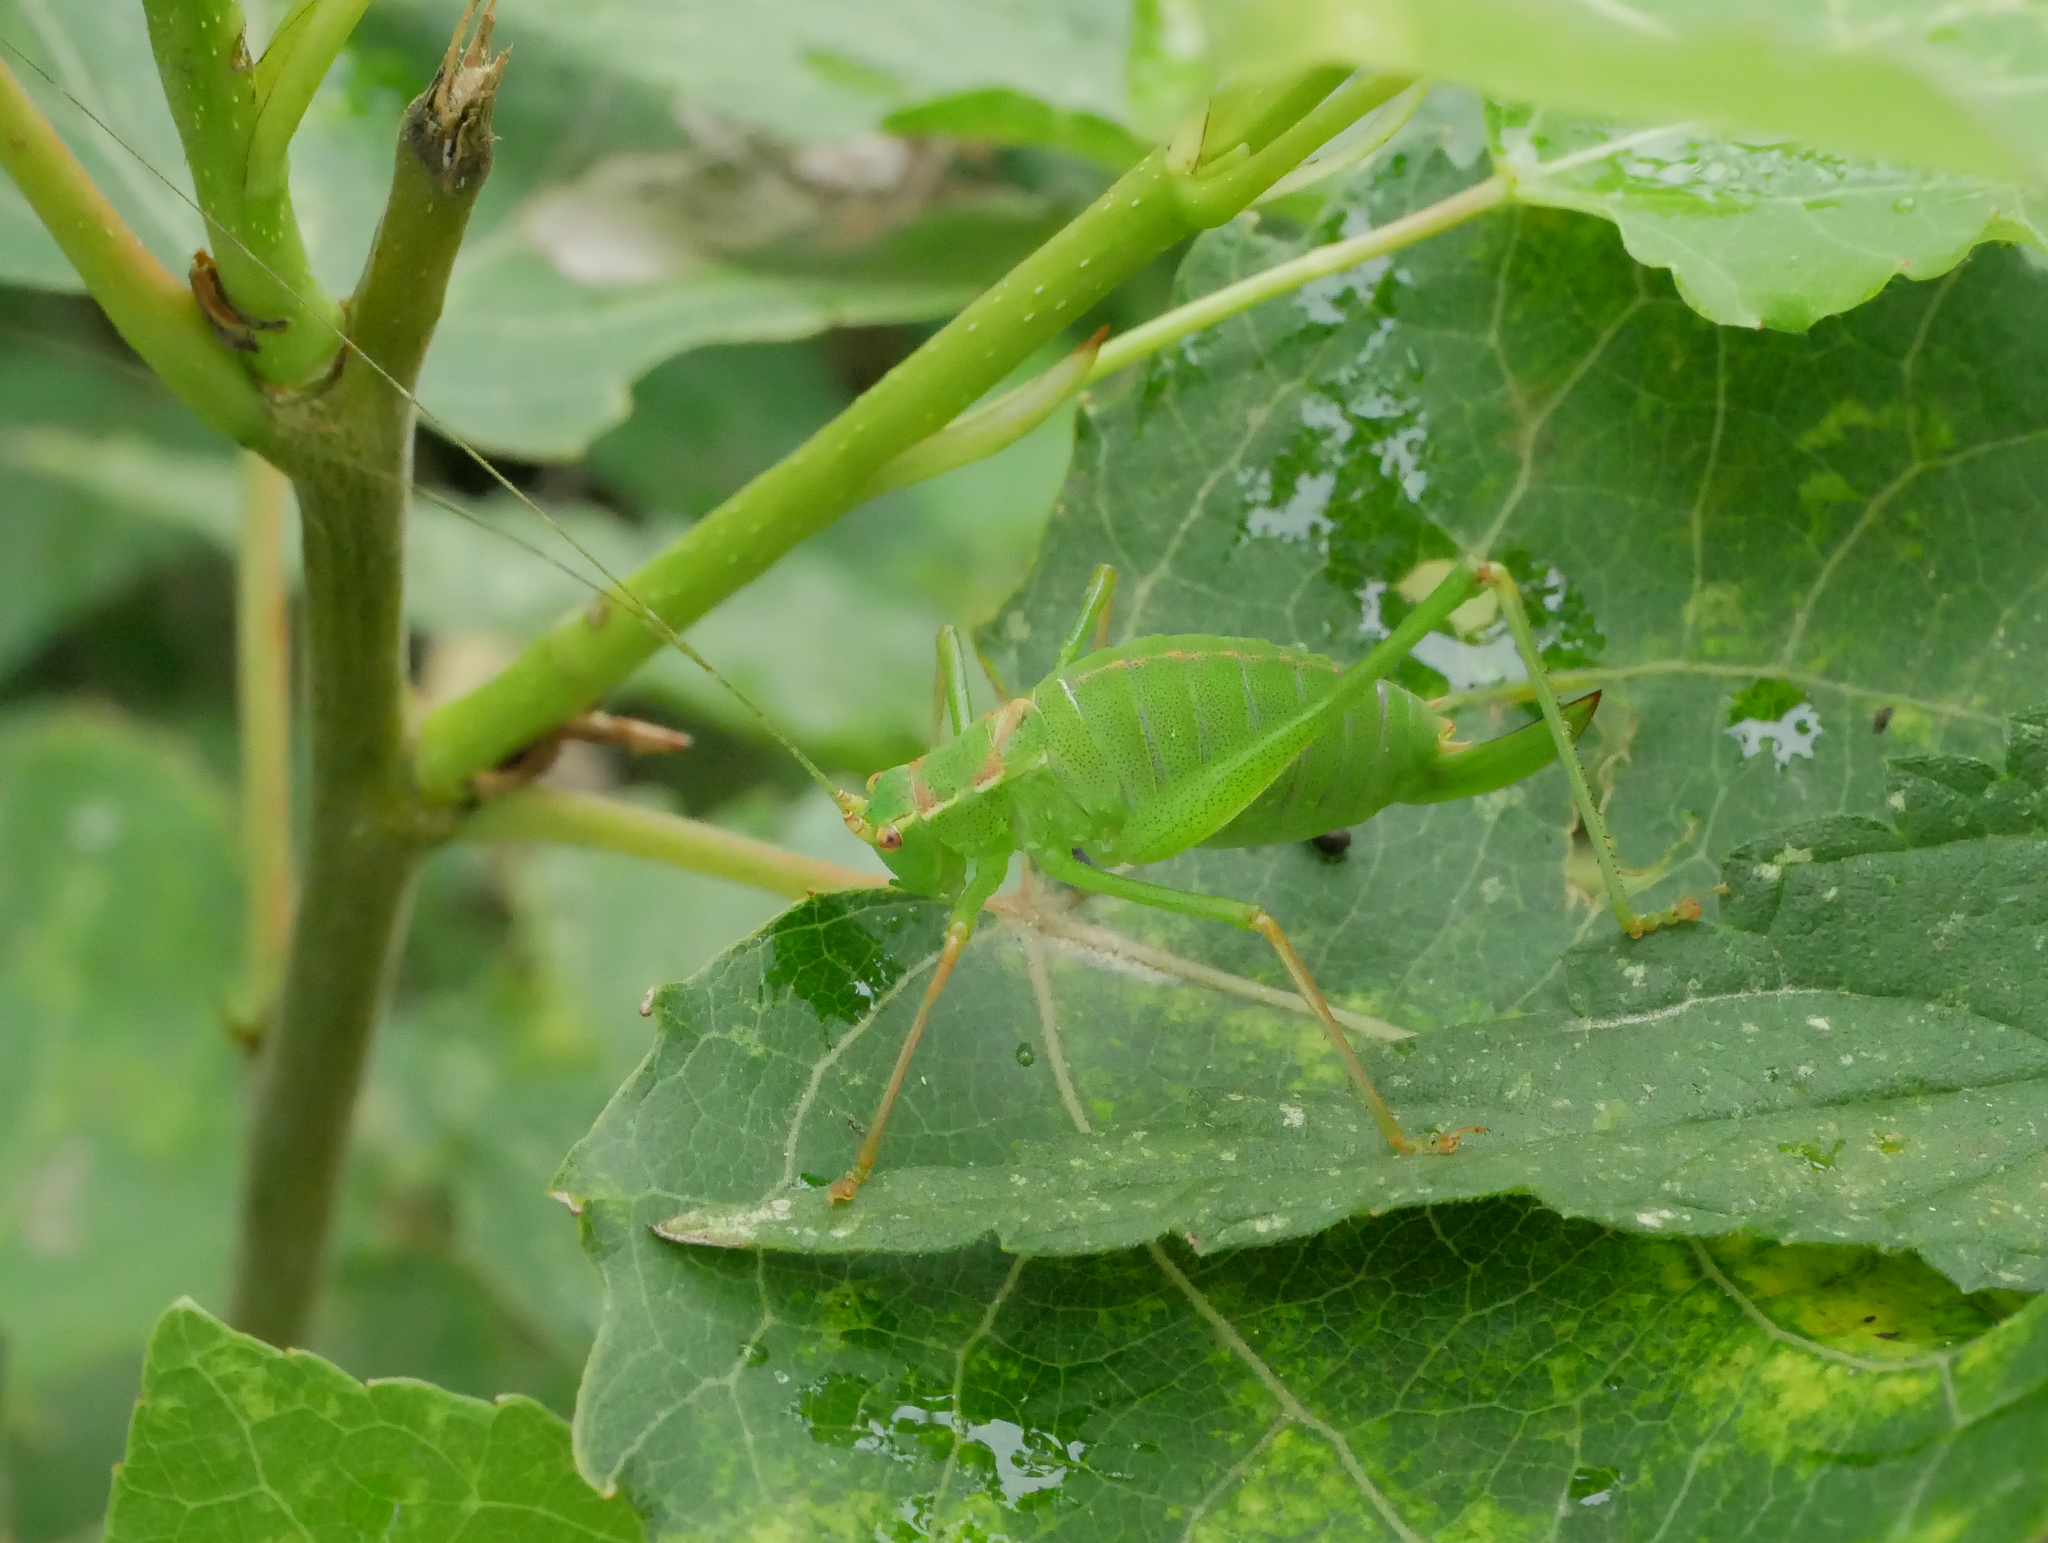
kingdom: Animalia
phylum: Arthropoda
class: Insecta
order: Orthoptera
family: Tettigoniidae
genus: Leptophyes
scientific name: Leptophyes punctatissima
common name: Speckled bush-cricket
